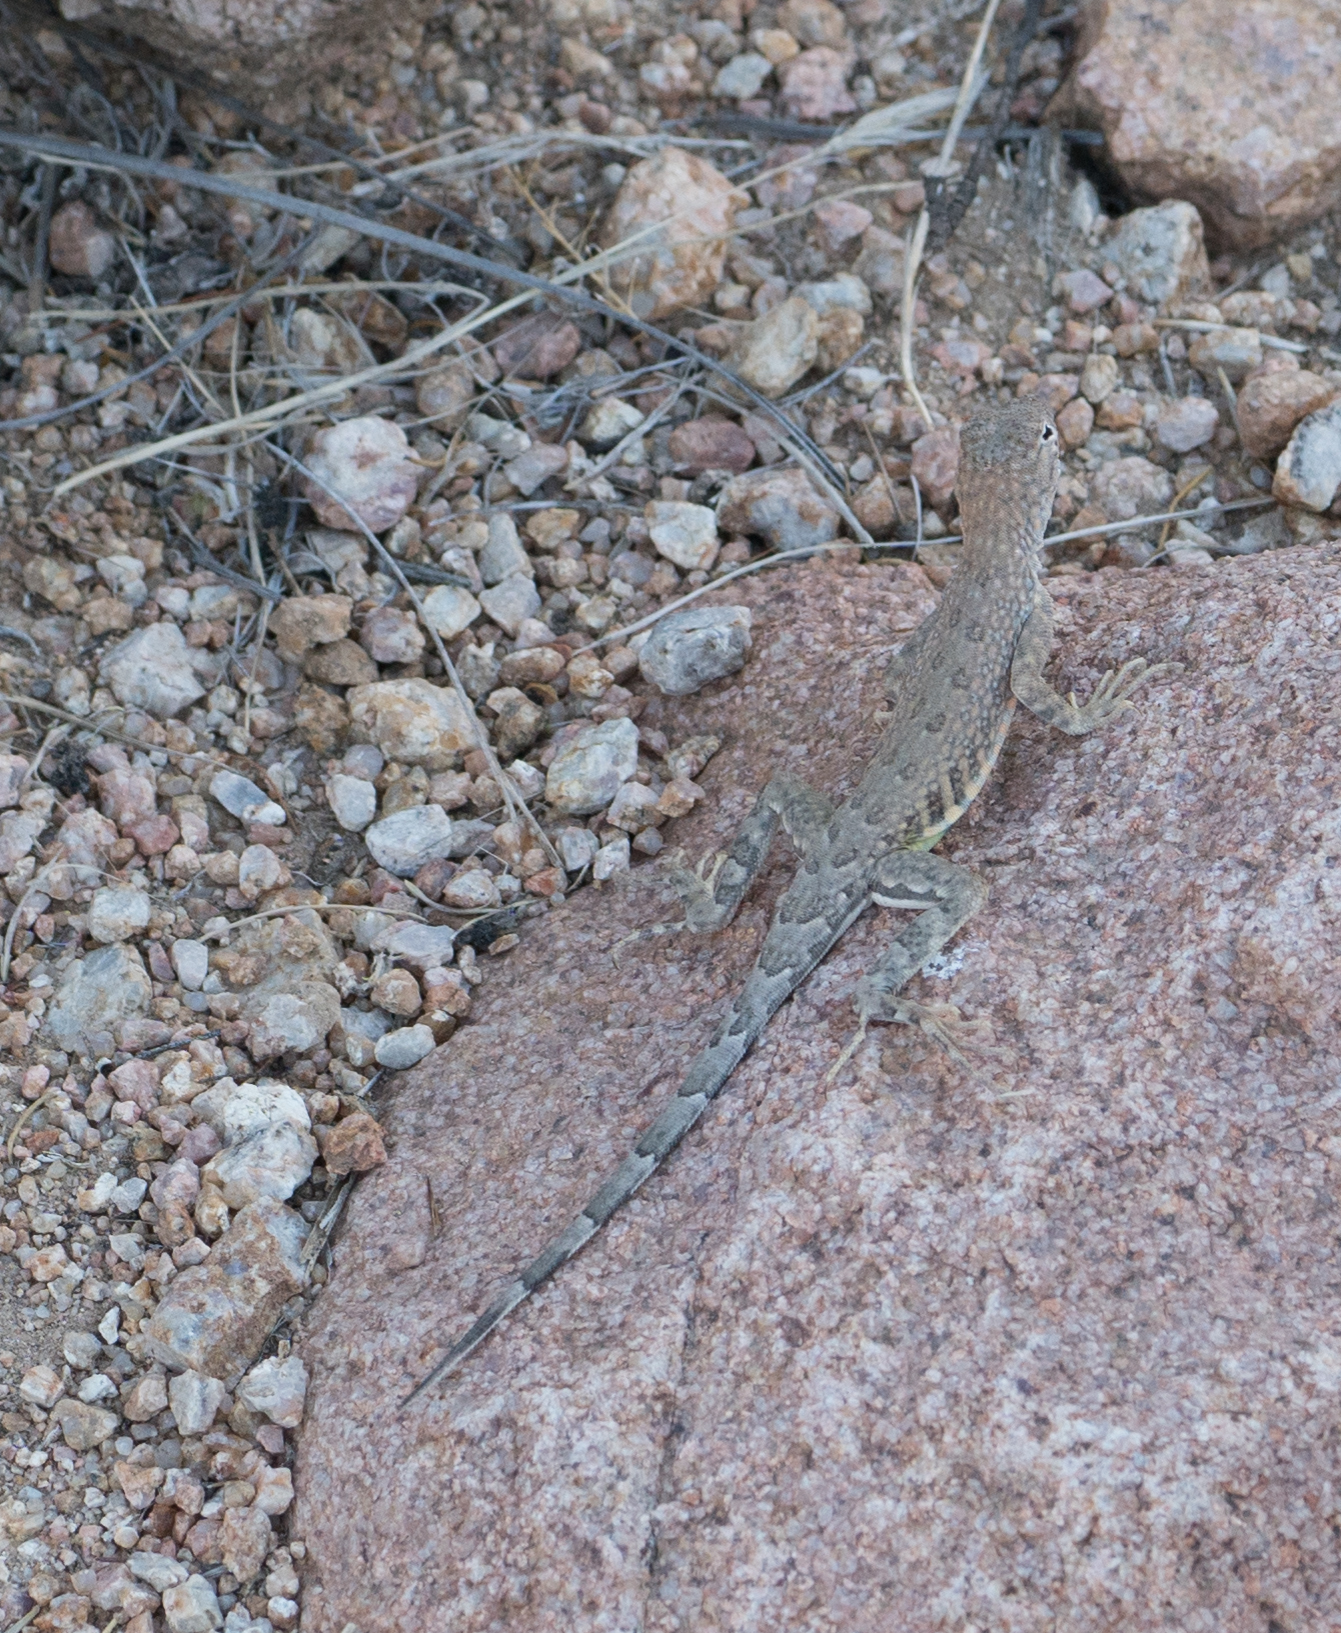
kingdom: Animalia
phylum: Chordata
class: Squamata
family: Phrynosomatidae
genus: Cophosaurus
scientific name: Cophosaurus texanus
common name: Greater earless lizard
